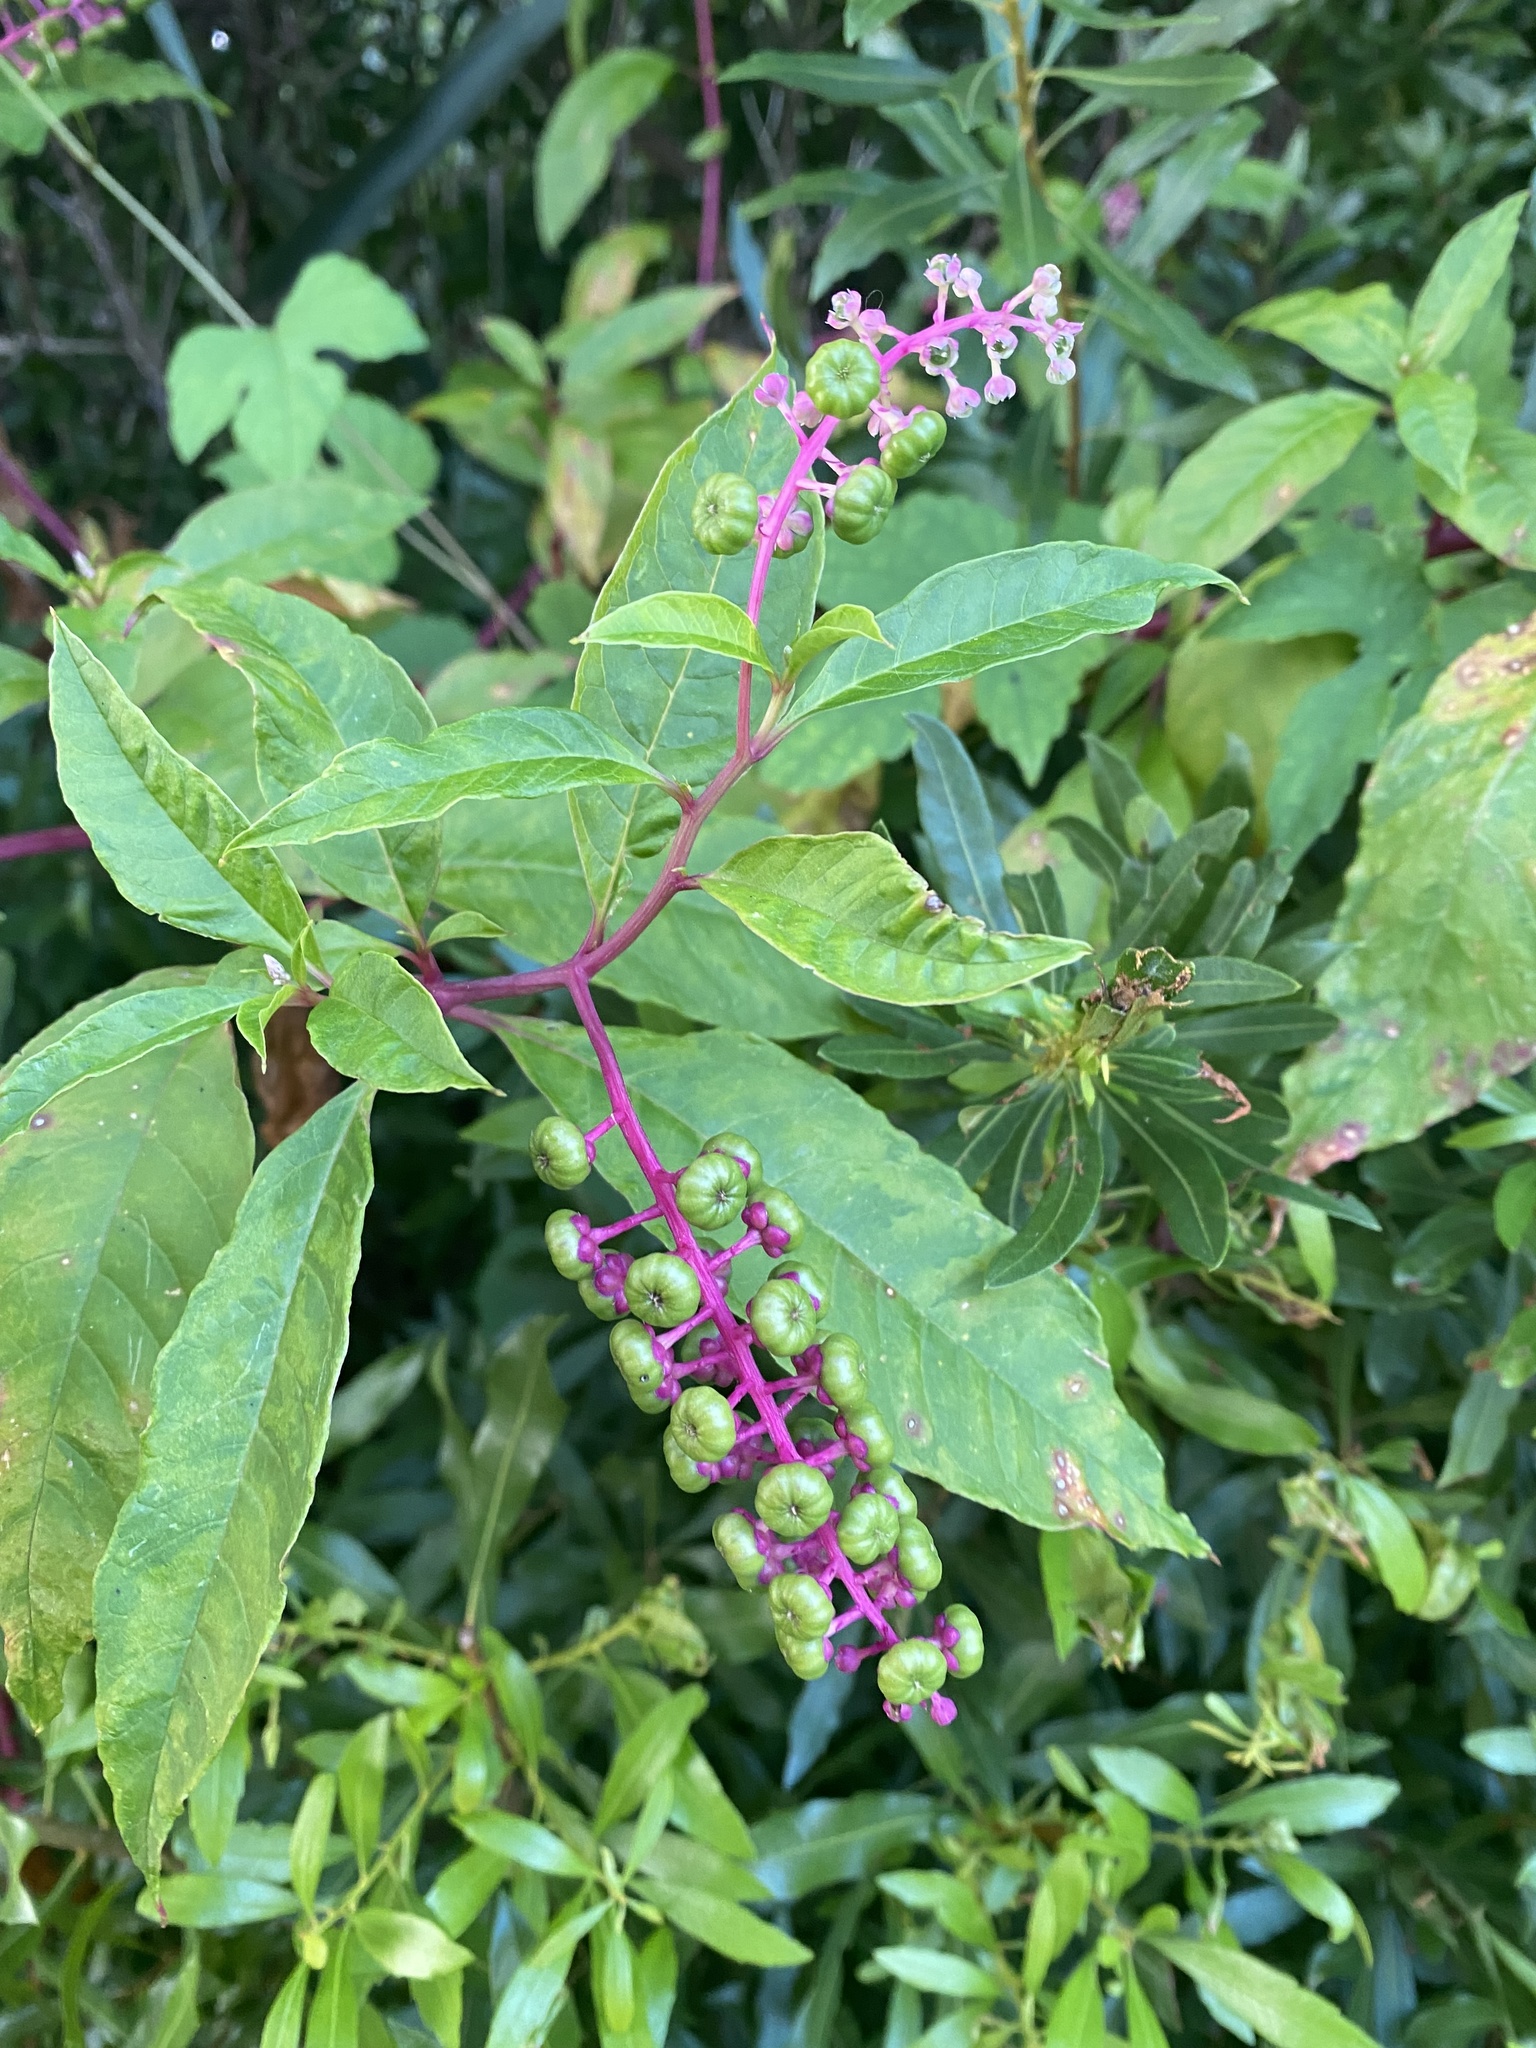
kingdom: Plantae
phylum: Tracheophyta
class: Magnoliopsida
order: Caryophyllales
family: Phytolaccaceae
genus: Phytolacca
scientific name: Phytolacca americana
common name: American pokeweed
